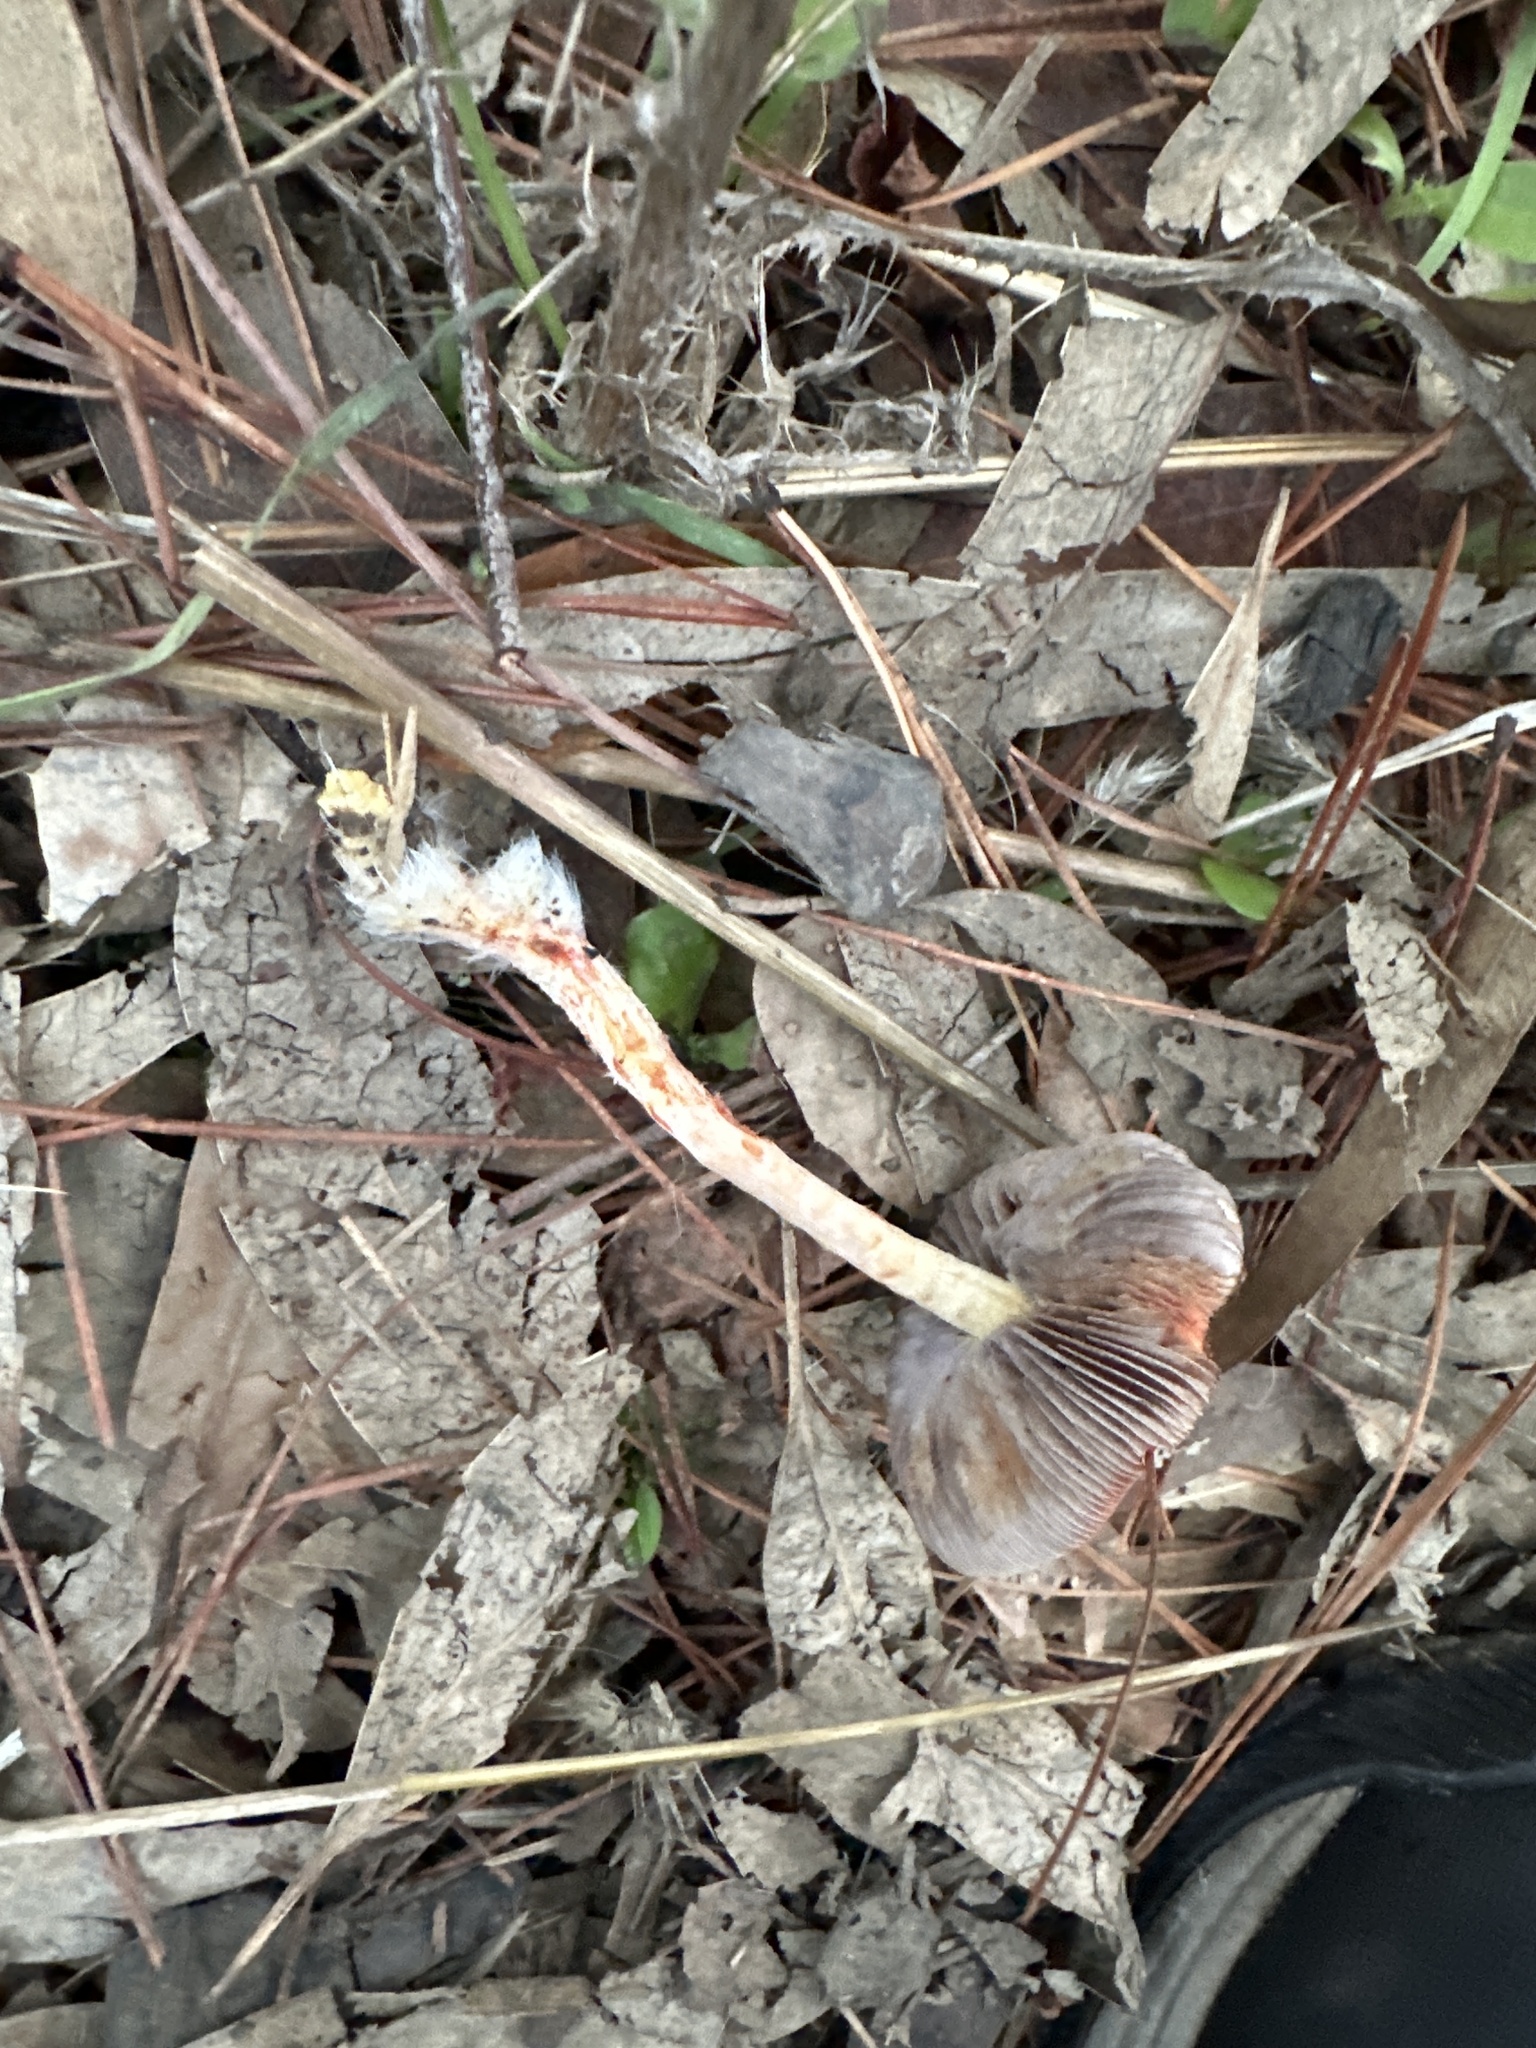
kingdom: Fungi
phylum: Basidiomycota
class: Agaricomycetes
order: Agaricales
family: Strophariaceae
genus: Leratiomyces
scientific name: Leratiomyces ceres
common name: Redlead roundhead
